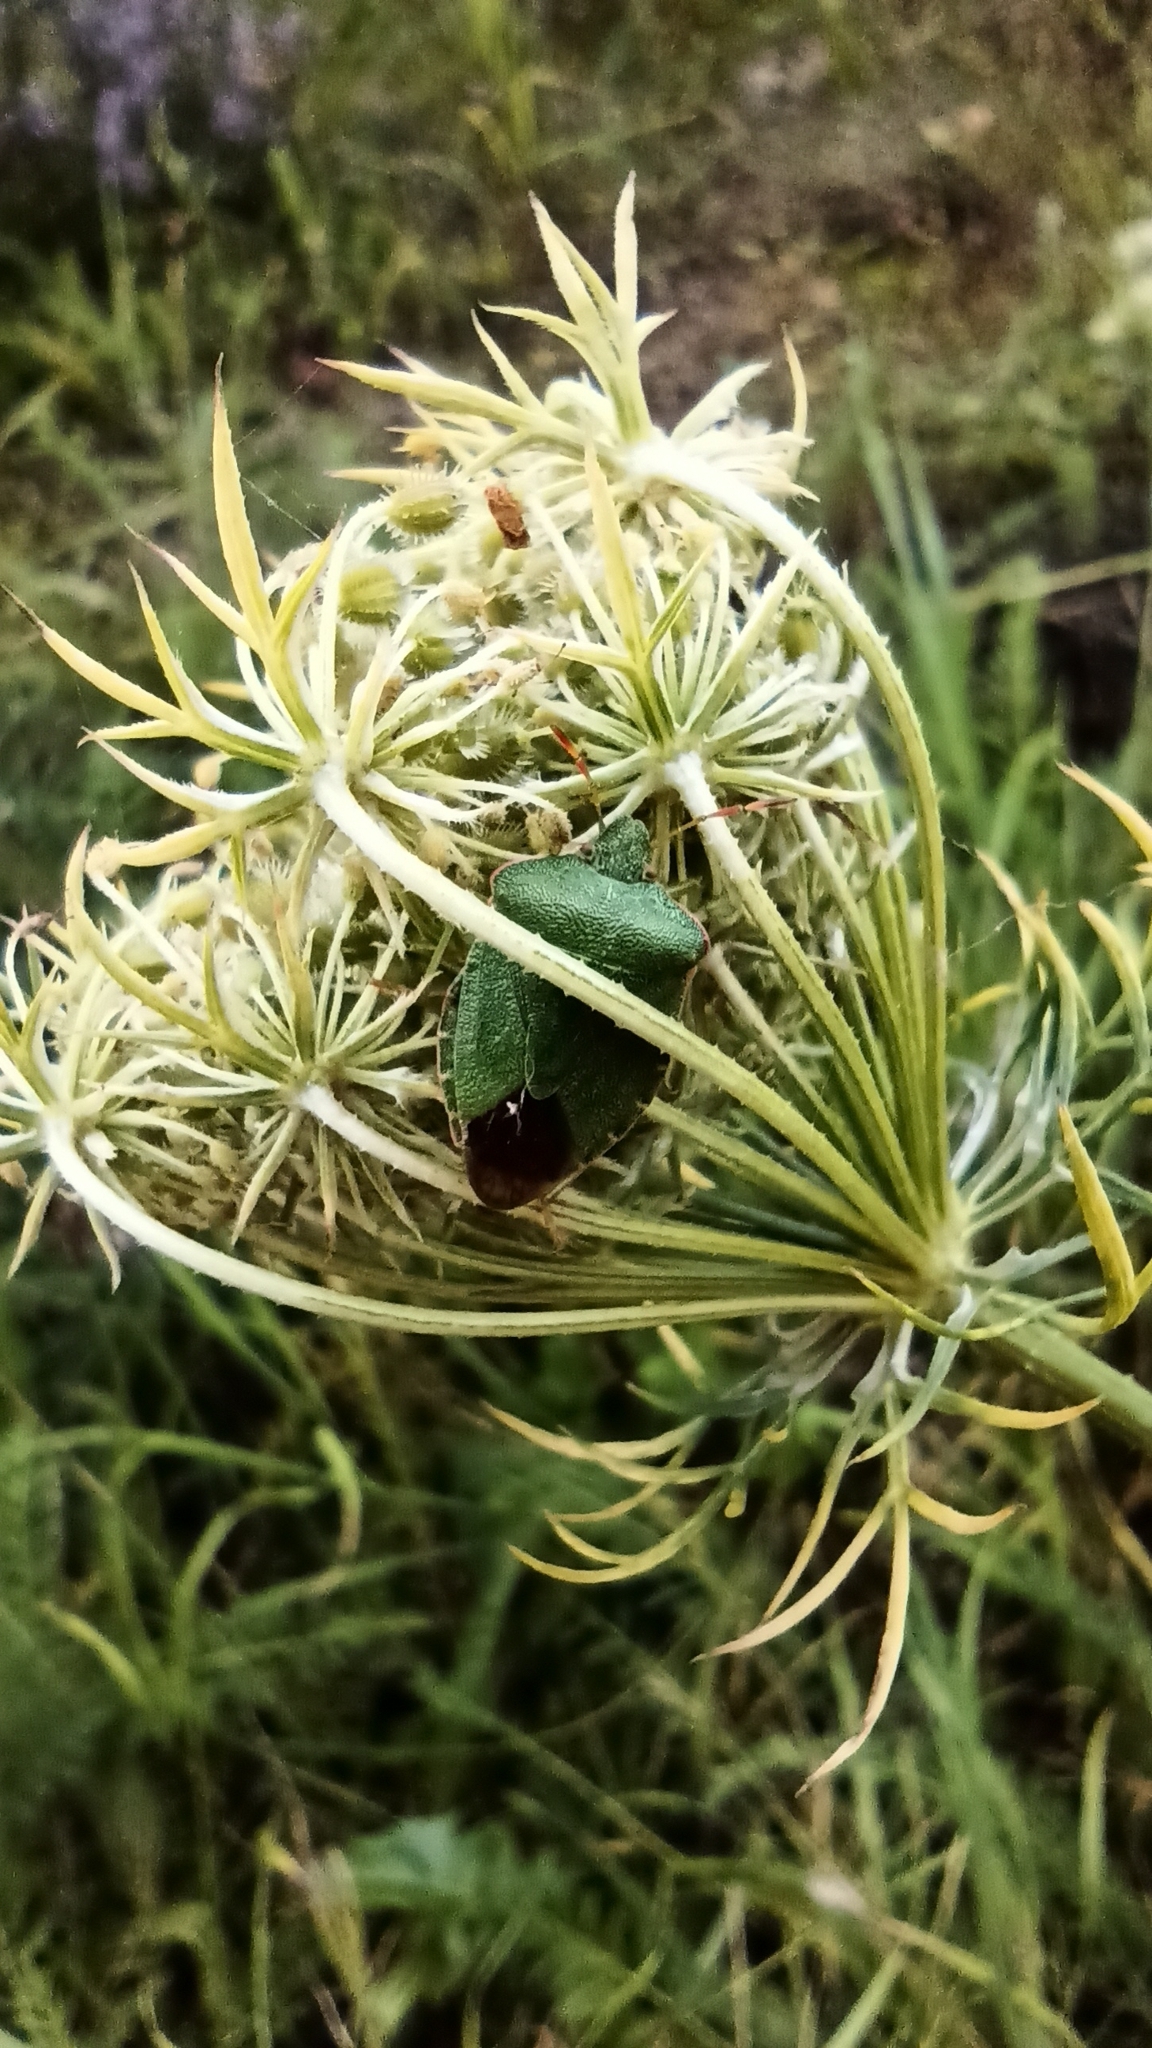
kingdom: Animalia
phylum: Arthropoda
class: Insecta
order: Hemiptera
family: Pentatomidae
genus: Palomena
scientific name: Palomena prasina
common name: Green shieldbug
